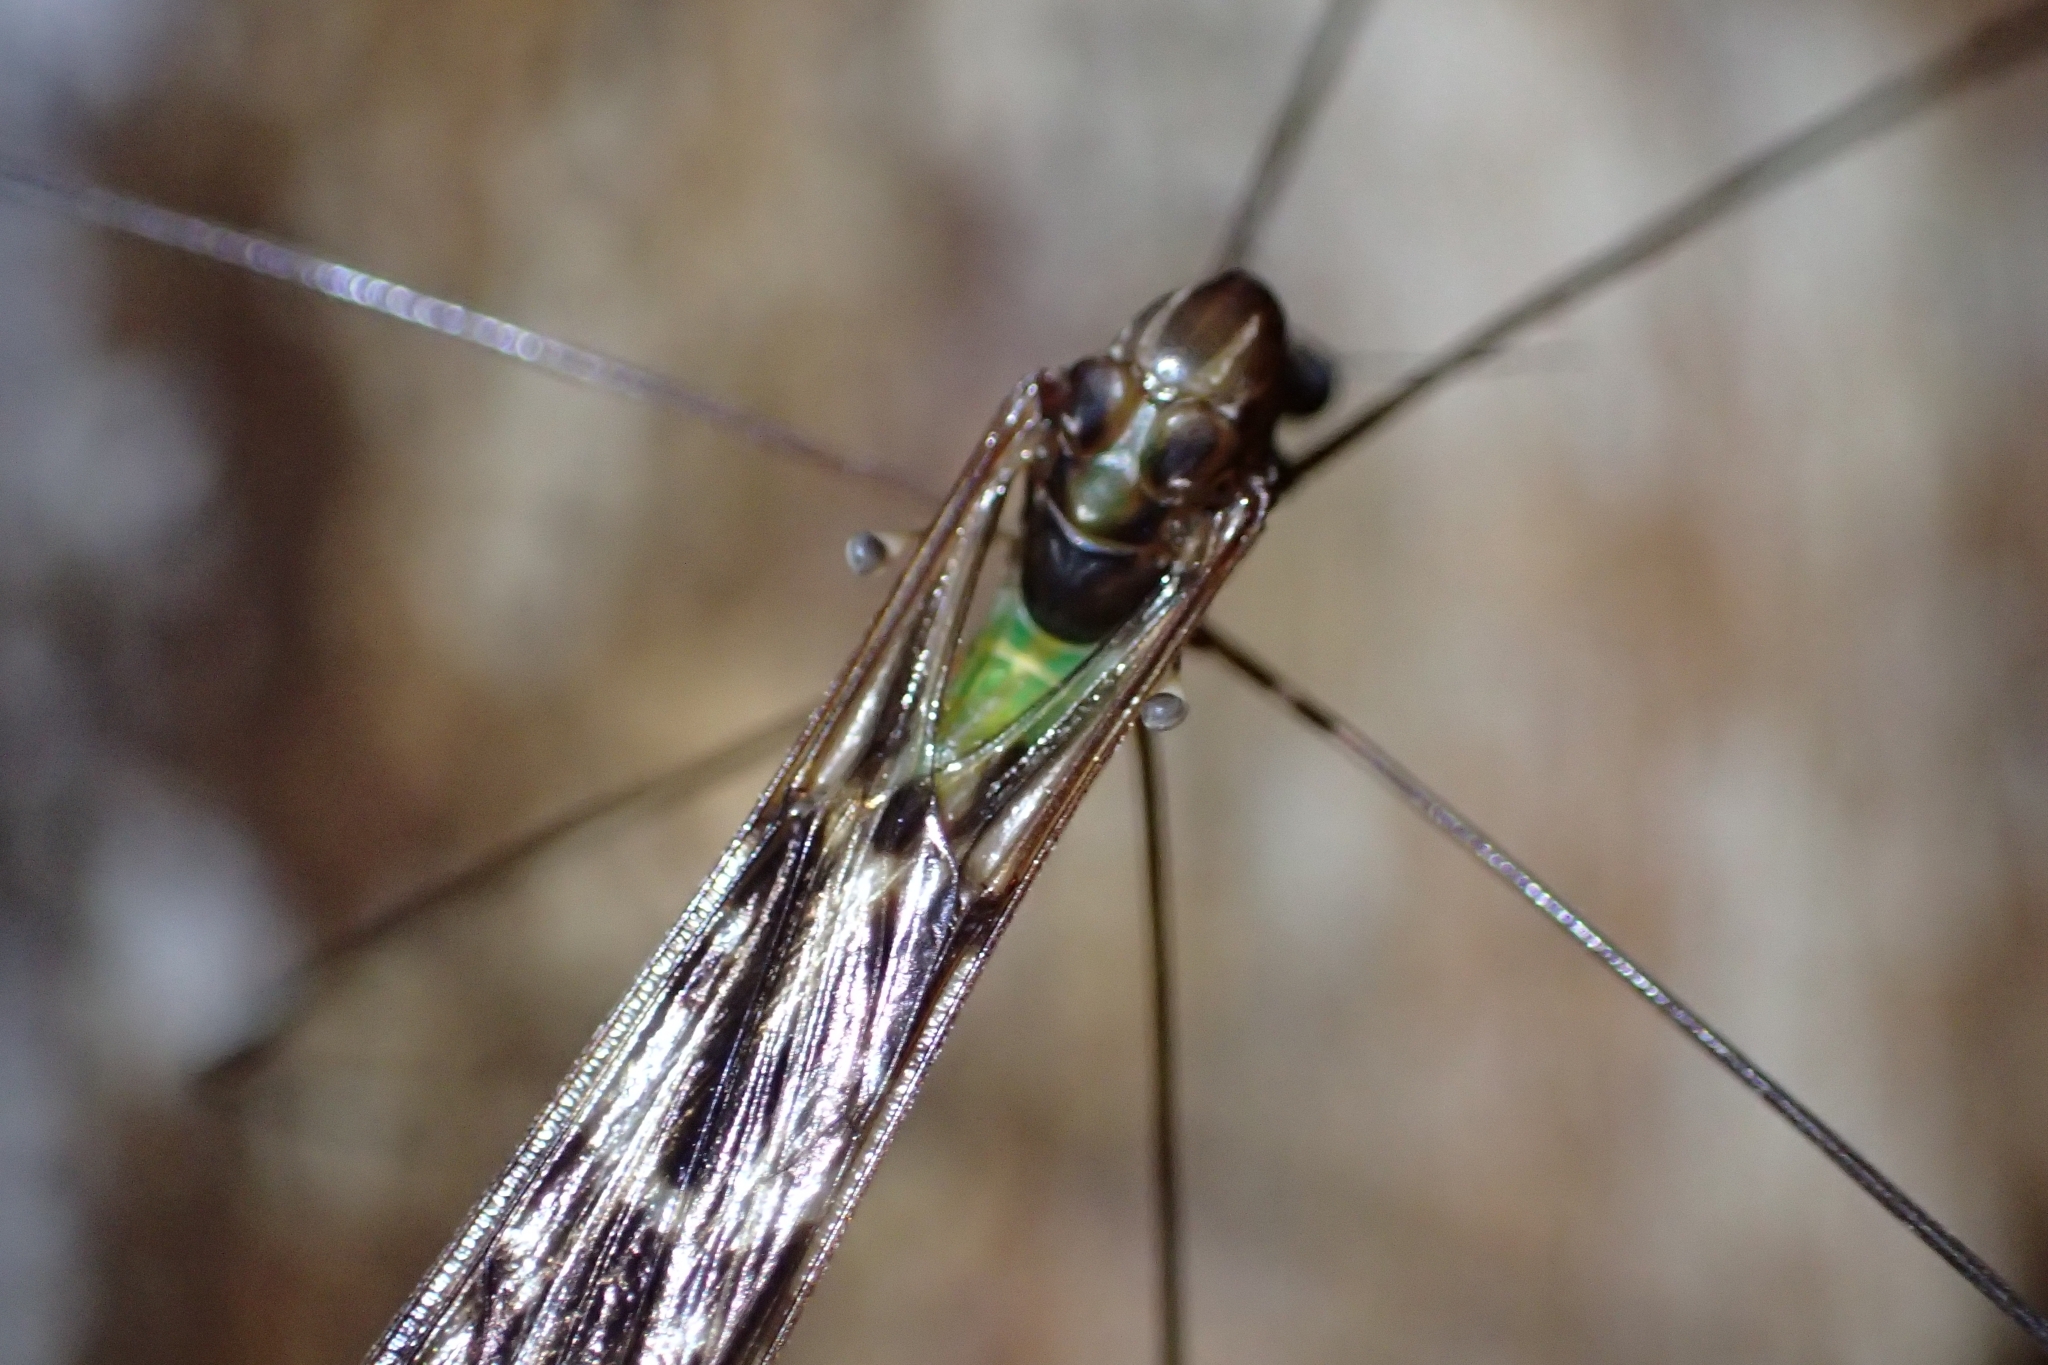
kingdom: Animalia
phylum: Arthropoda
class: Insecta
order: Diptera
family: Limoniidae
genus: Discobola
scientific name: Discobola dohrni
